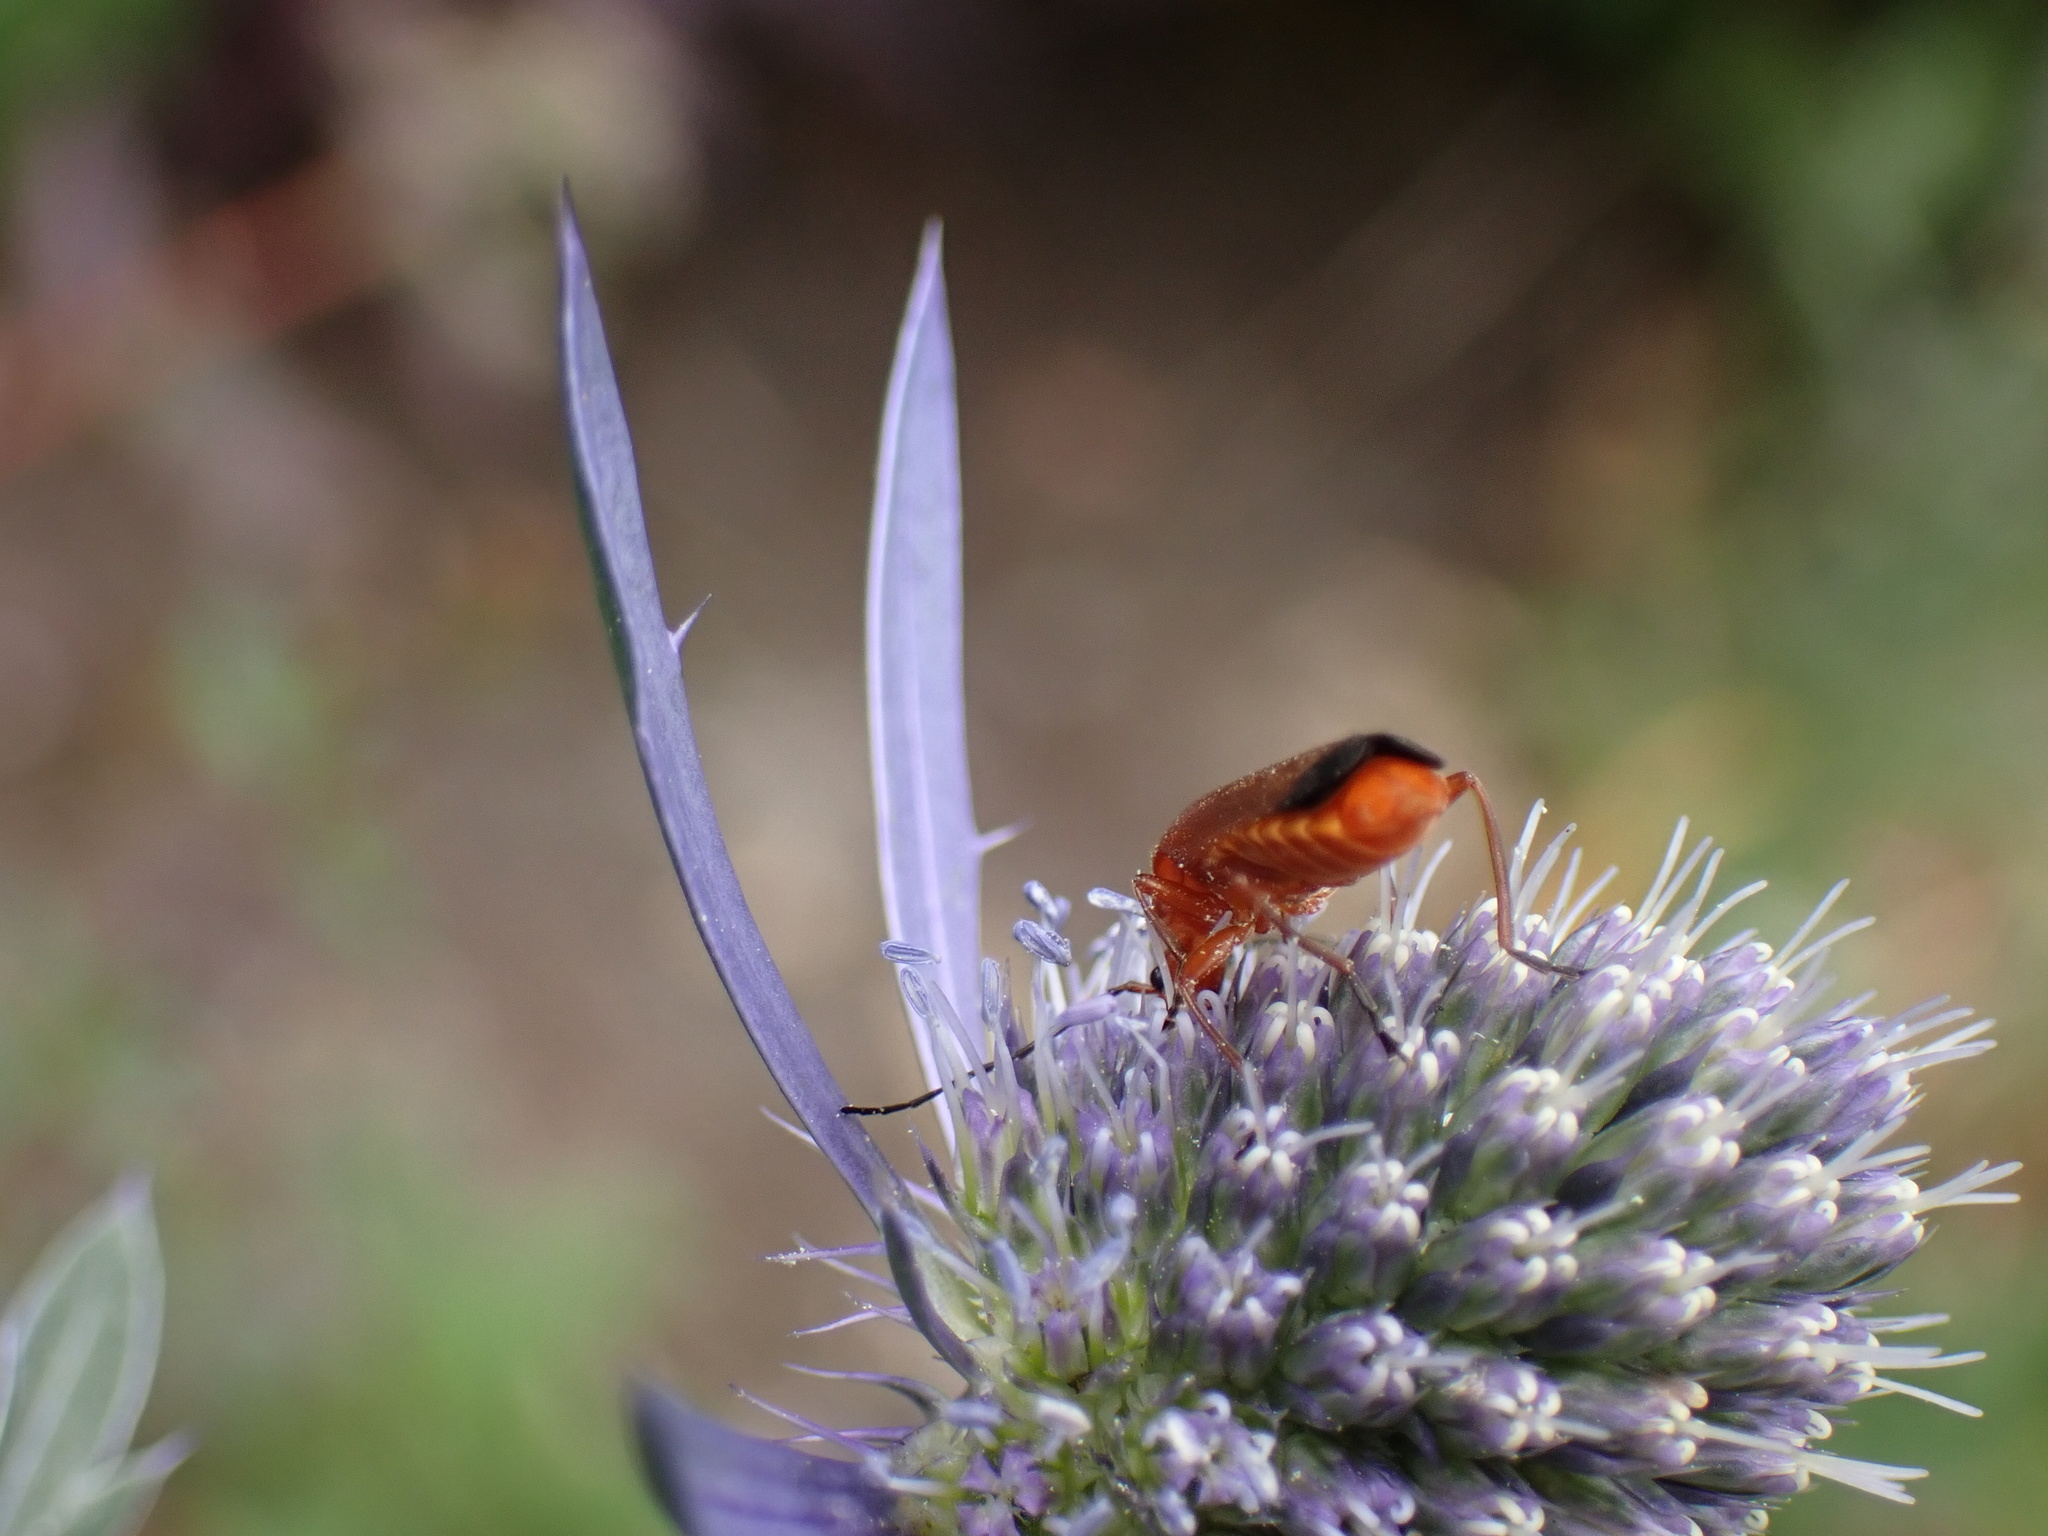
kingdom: Animalia
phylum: Arthropoda
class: Insecta
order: Coleoptera
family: Cantharidae
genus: Rhagonycha
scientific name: Rhagonycha fulva
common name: Common red soldier beetle
